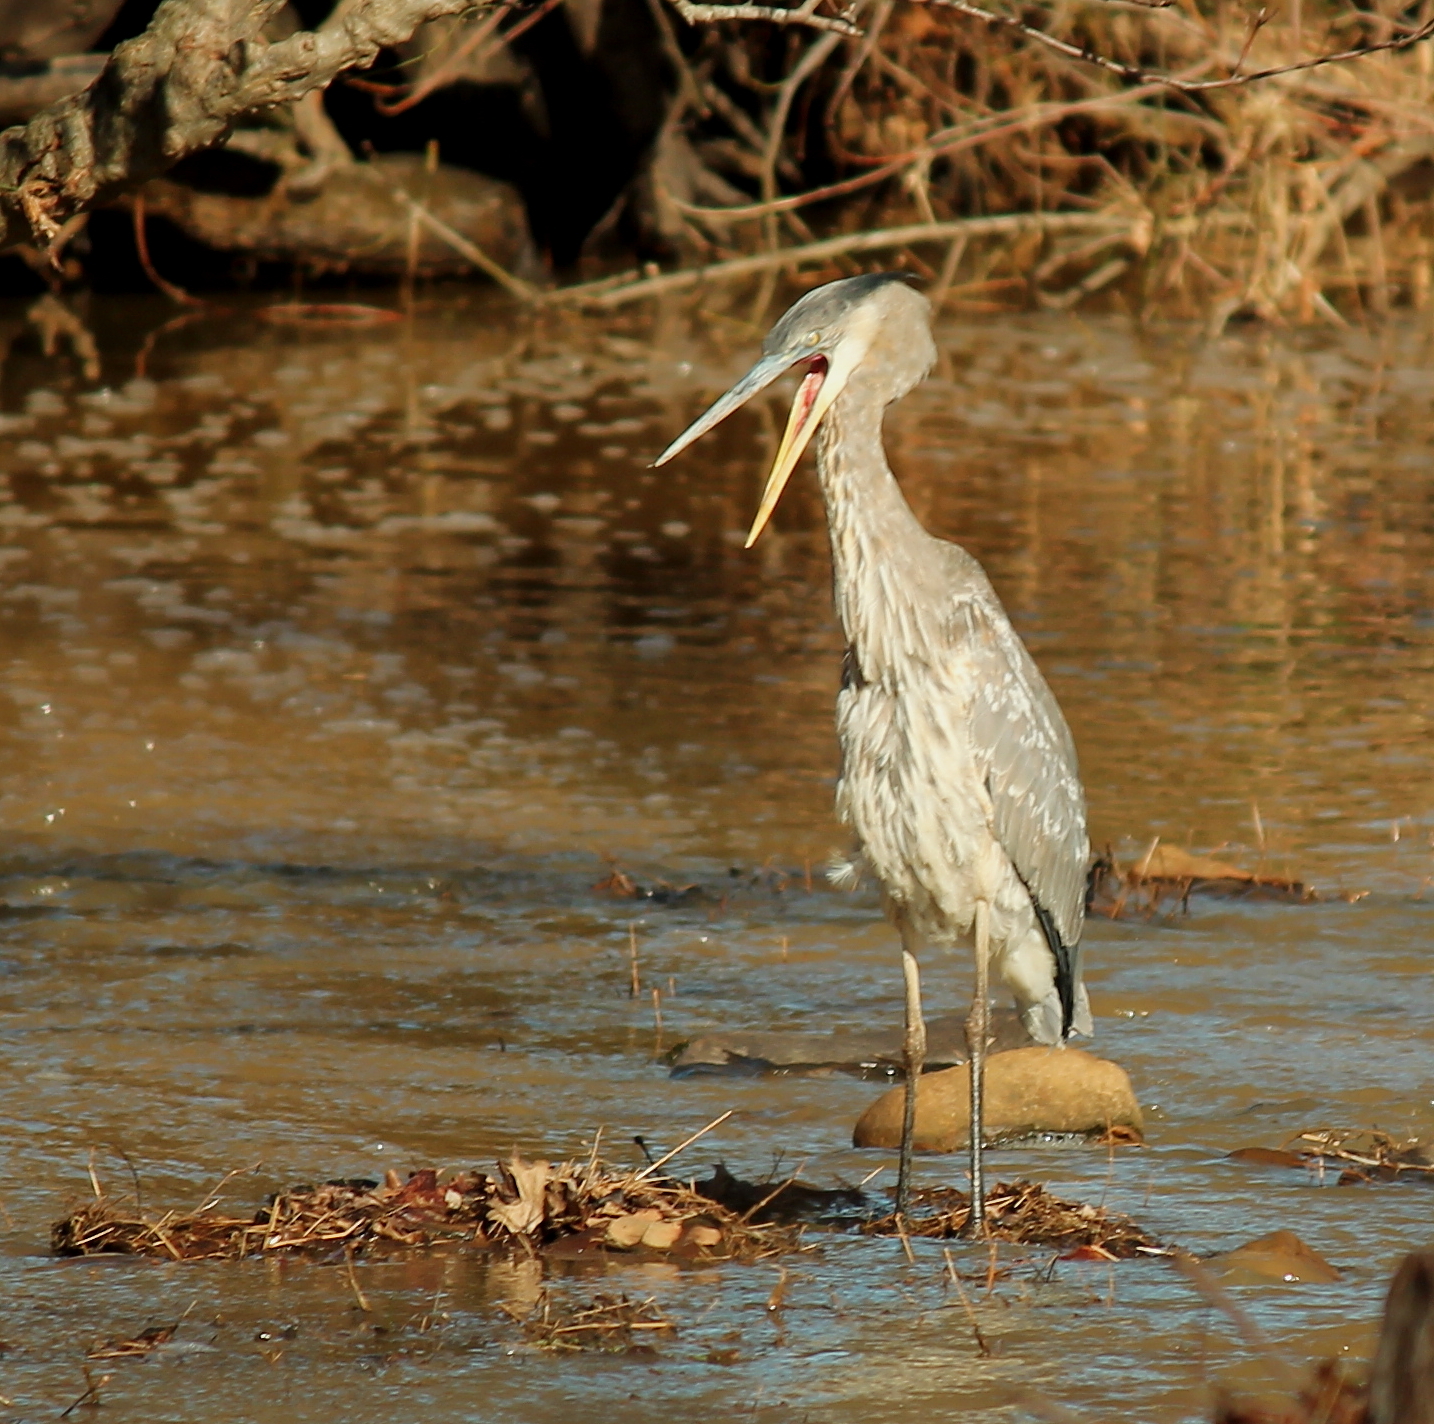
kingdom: Animalia
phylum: Chordata
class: Aves
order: Pelecaniformes
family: Ardeidae
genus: Ardea
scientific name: Ardea herodias
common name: Great blue heron
